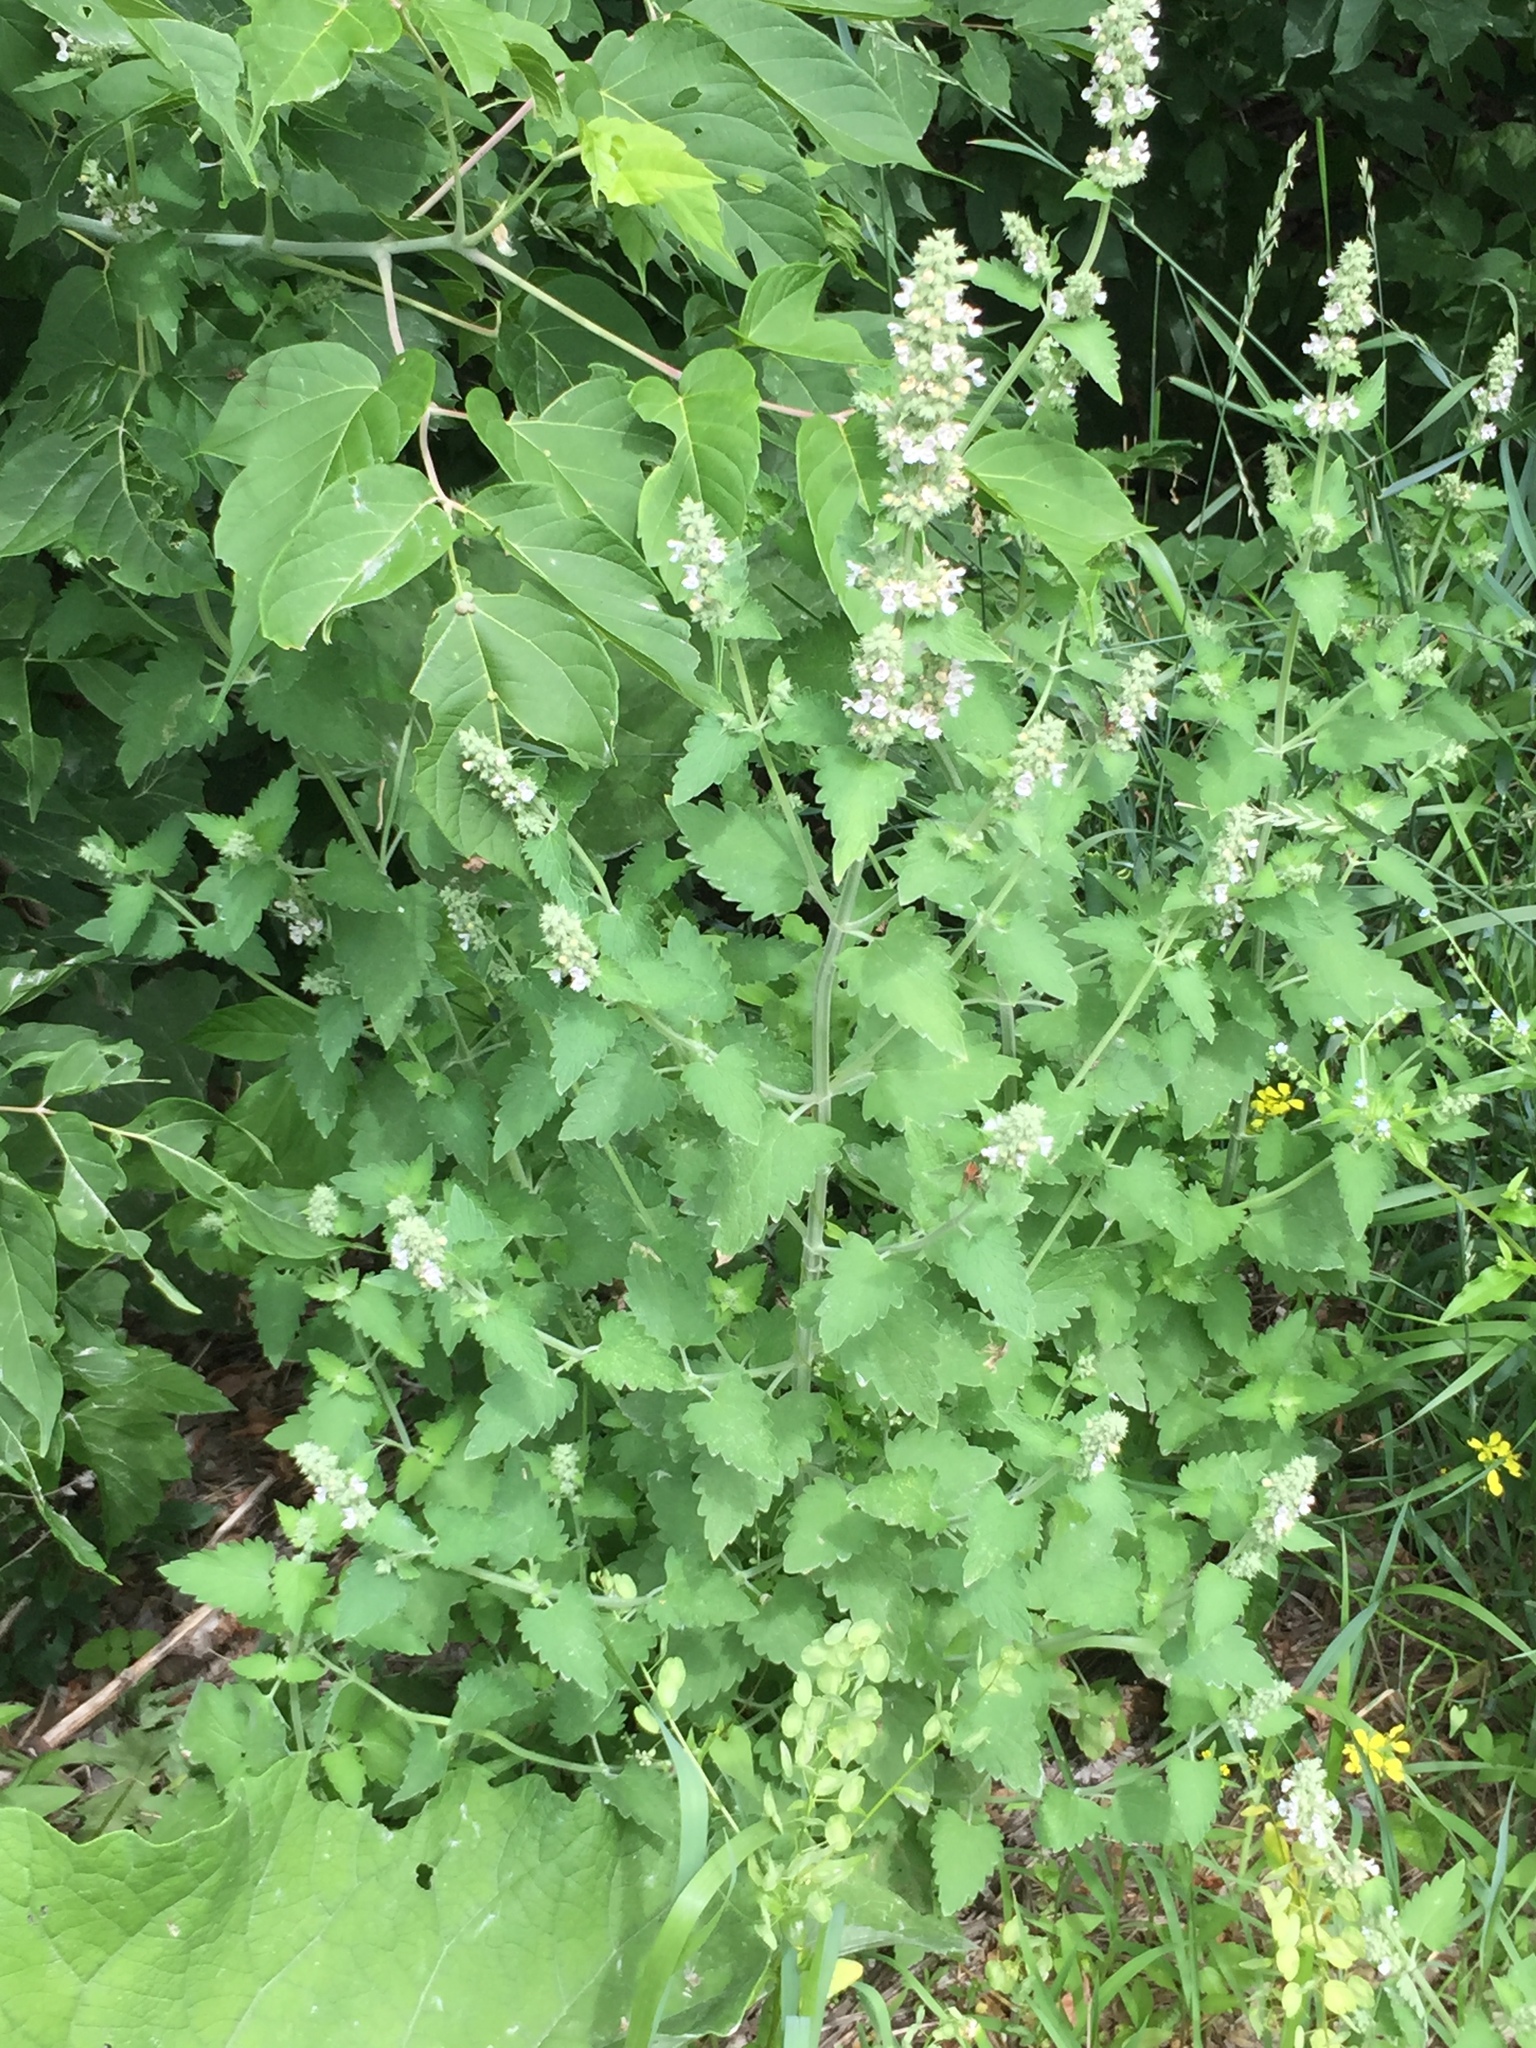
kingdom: Plantae
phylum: Tracheophyta
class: Magnoliopsida
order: Lamiales
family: Lamiaceae
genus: Nepeta
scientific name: Nepeta cataria
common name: Catnip
